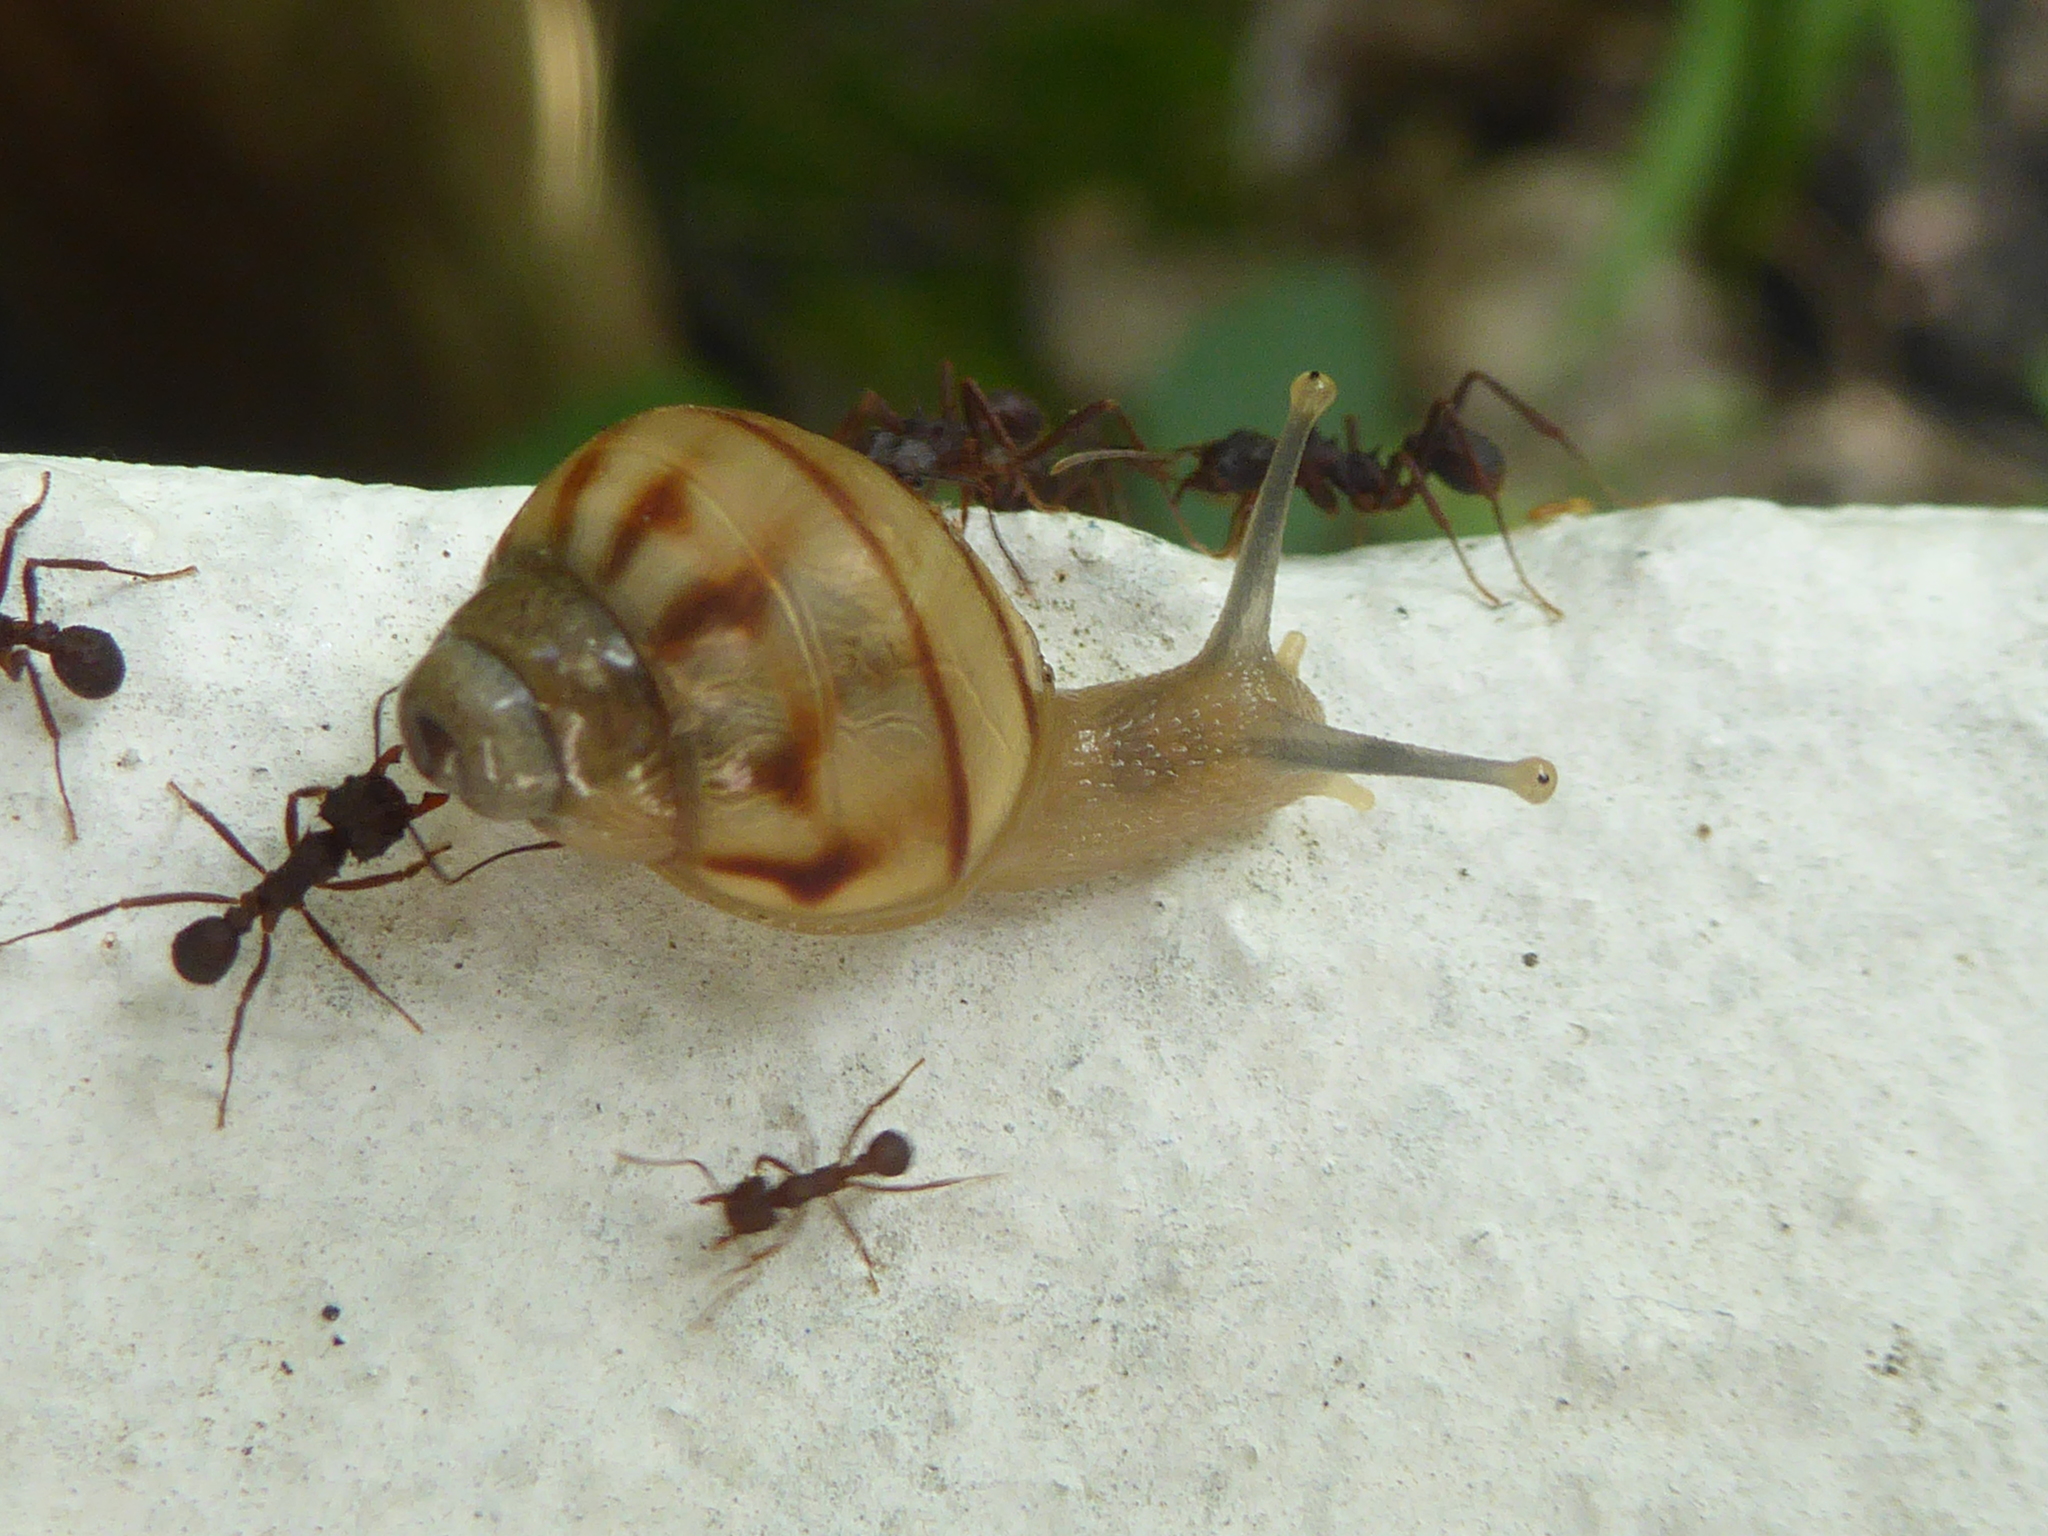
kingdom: Animalia
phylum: Mollusca
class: Gastropoda
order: Stylommatophora
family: Orthalicidae
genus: Orthalicus
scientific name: Orthalicus
